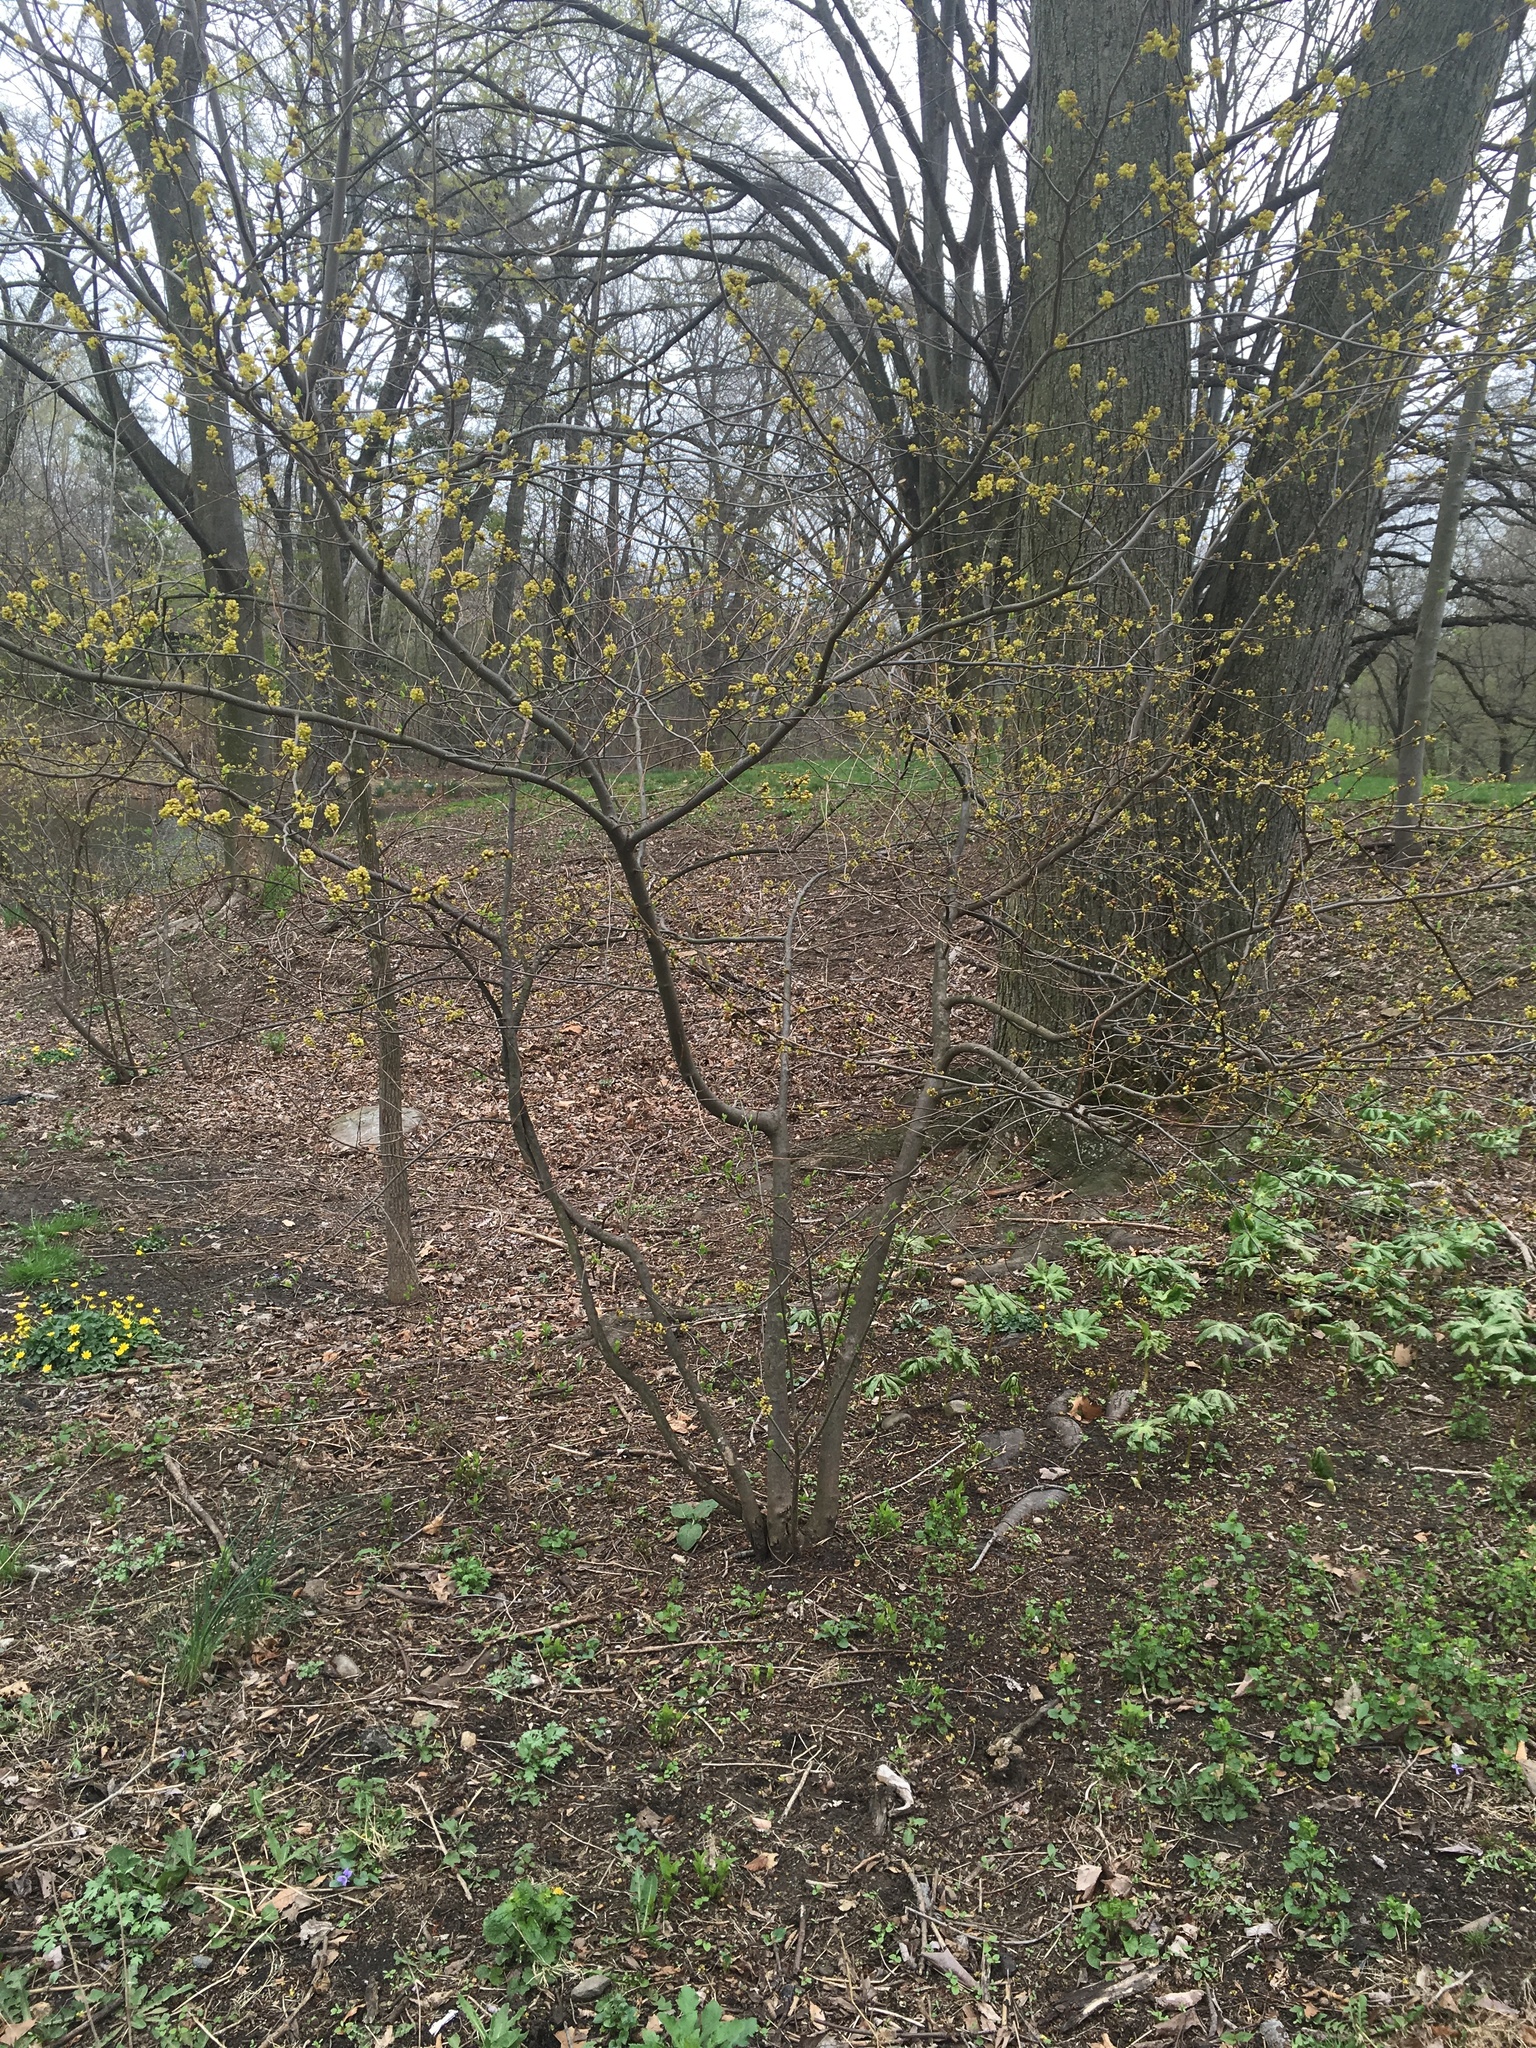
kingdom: Plantae
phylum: Tracheophyta
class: Magnoliopsida
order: Laurales
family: Lauraceae
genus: Lindera
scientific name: Lindera benzoin
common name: Spicebush
